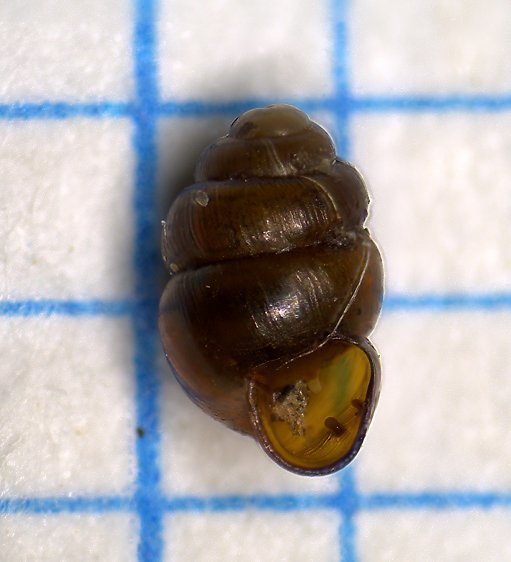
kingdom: Animalia
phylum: Mollusca
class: Gastropoda
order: Stylommatophora
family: Vertiginidae
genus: Vertigo
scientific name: Vertigo geyeri
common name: Geyer's whorl snail
